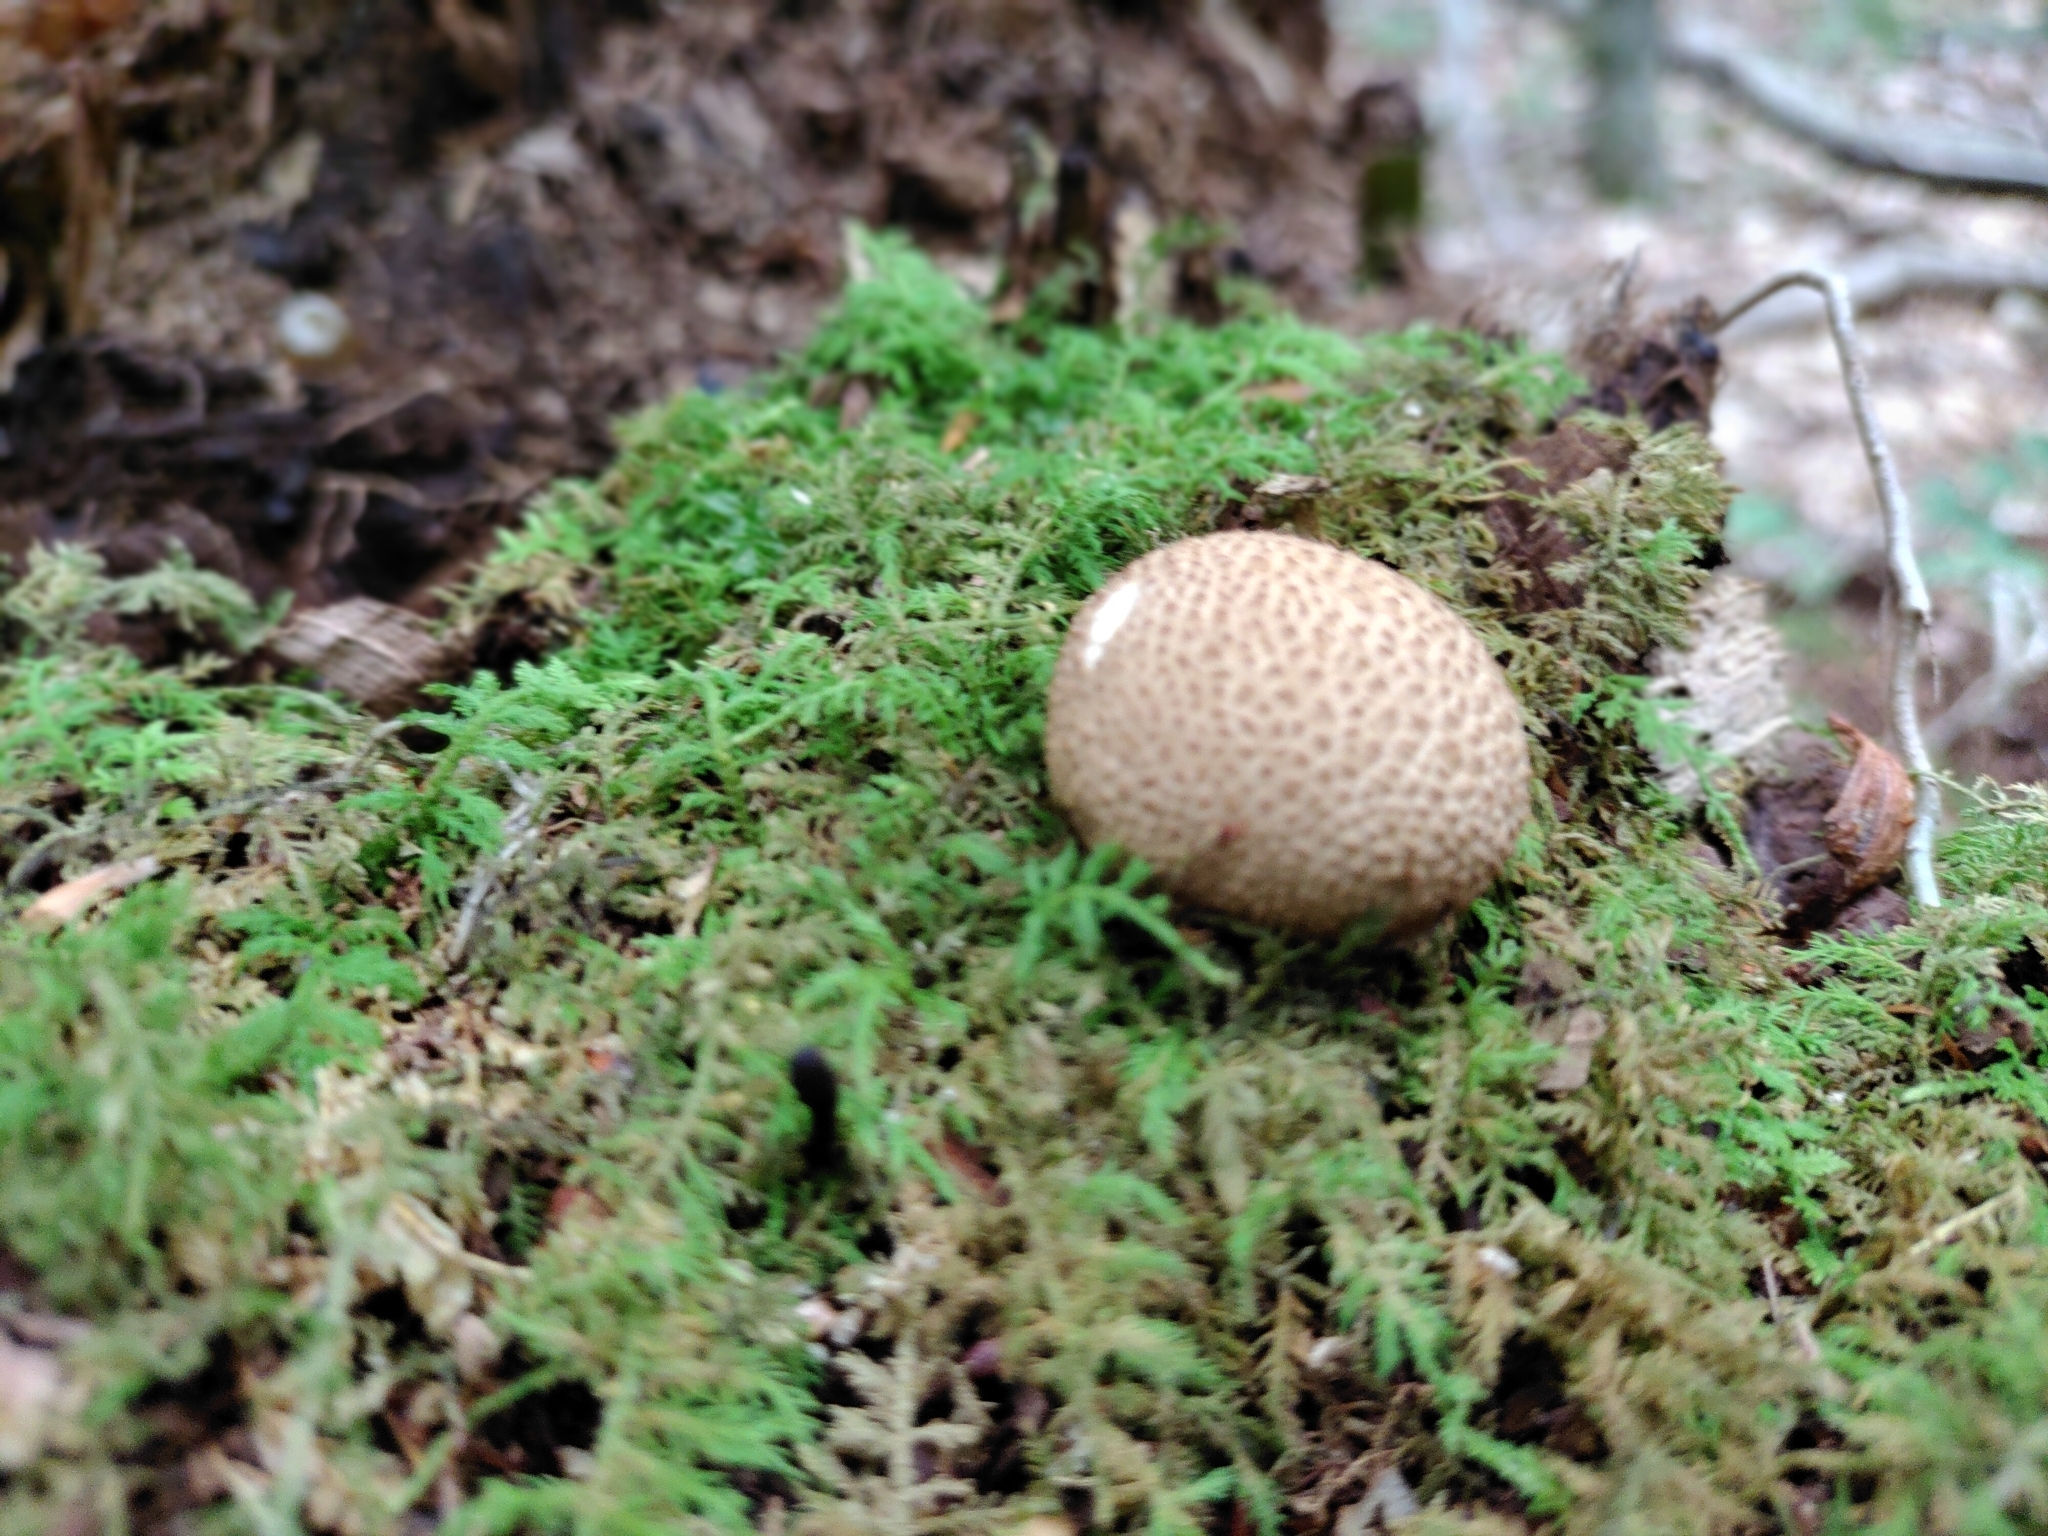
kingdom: Fungi
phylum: Basidiomycota
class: Agaricomycetes
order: Boletales
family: Sclerodermataceae
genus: Scleroderma
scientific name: Scleroderma citrinum
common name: Common earthball
